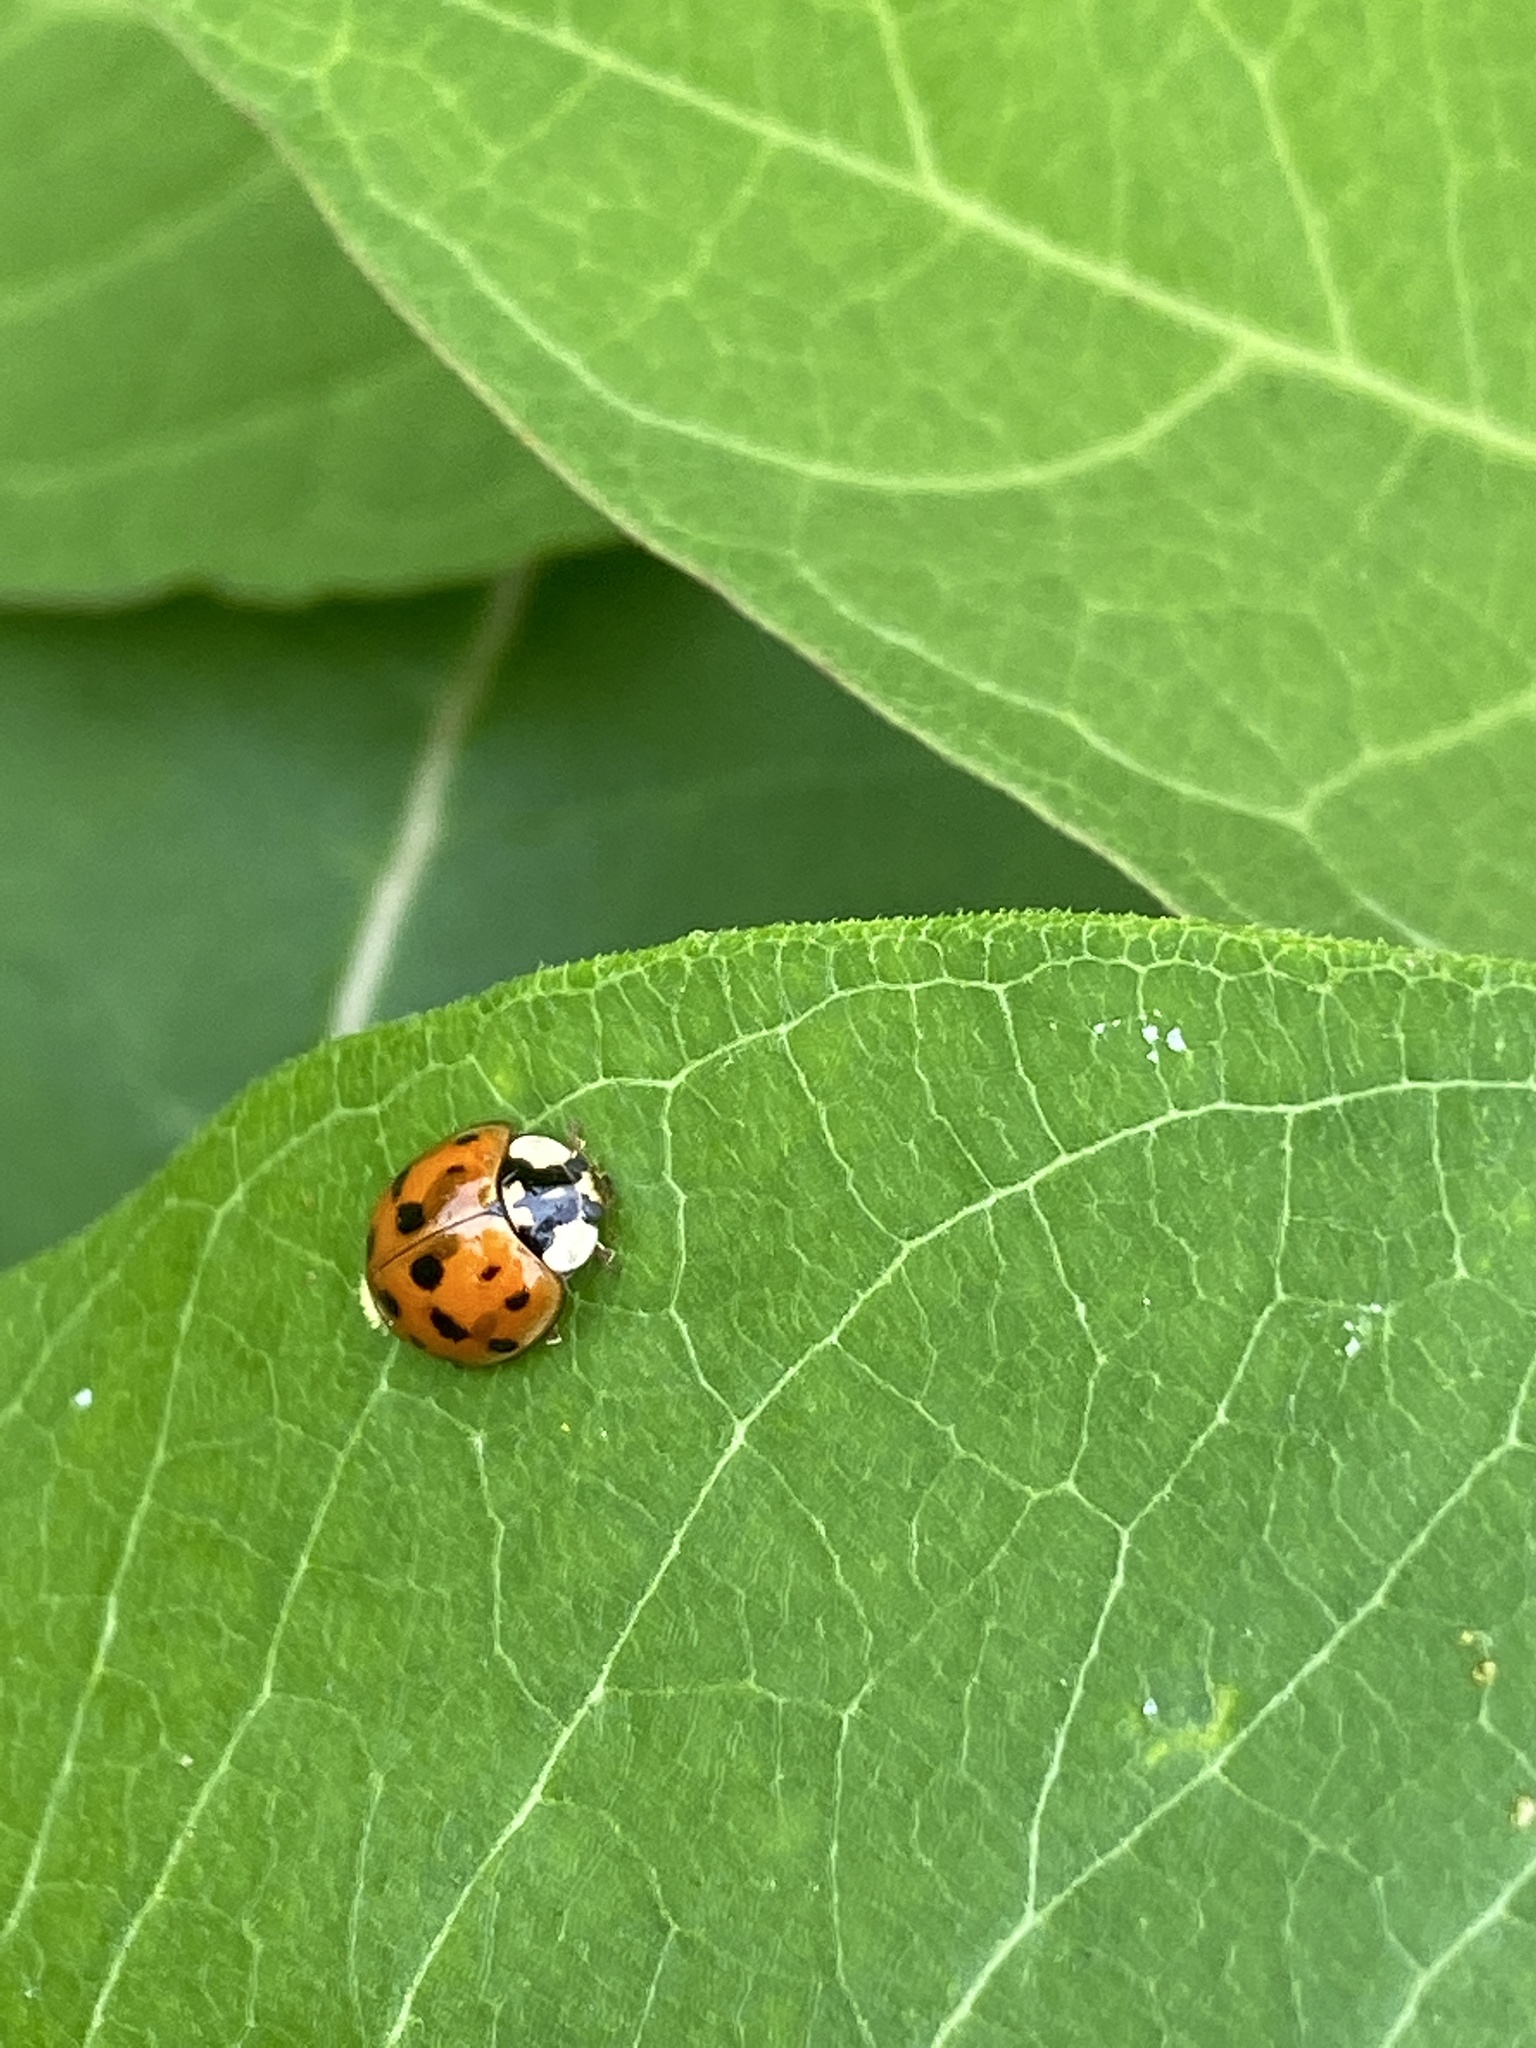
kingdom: Animalia
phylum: Arthropoda
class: Insecta
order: Coleoptera
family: Coccinellidae
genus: Harmonia
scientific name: Harmonia axyridis
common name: Harlequin ladybird
